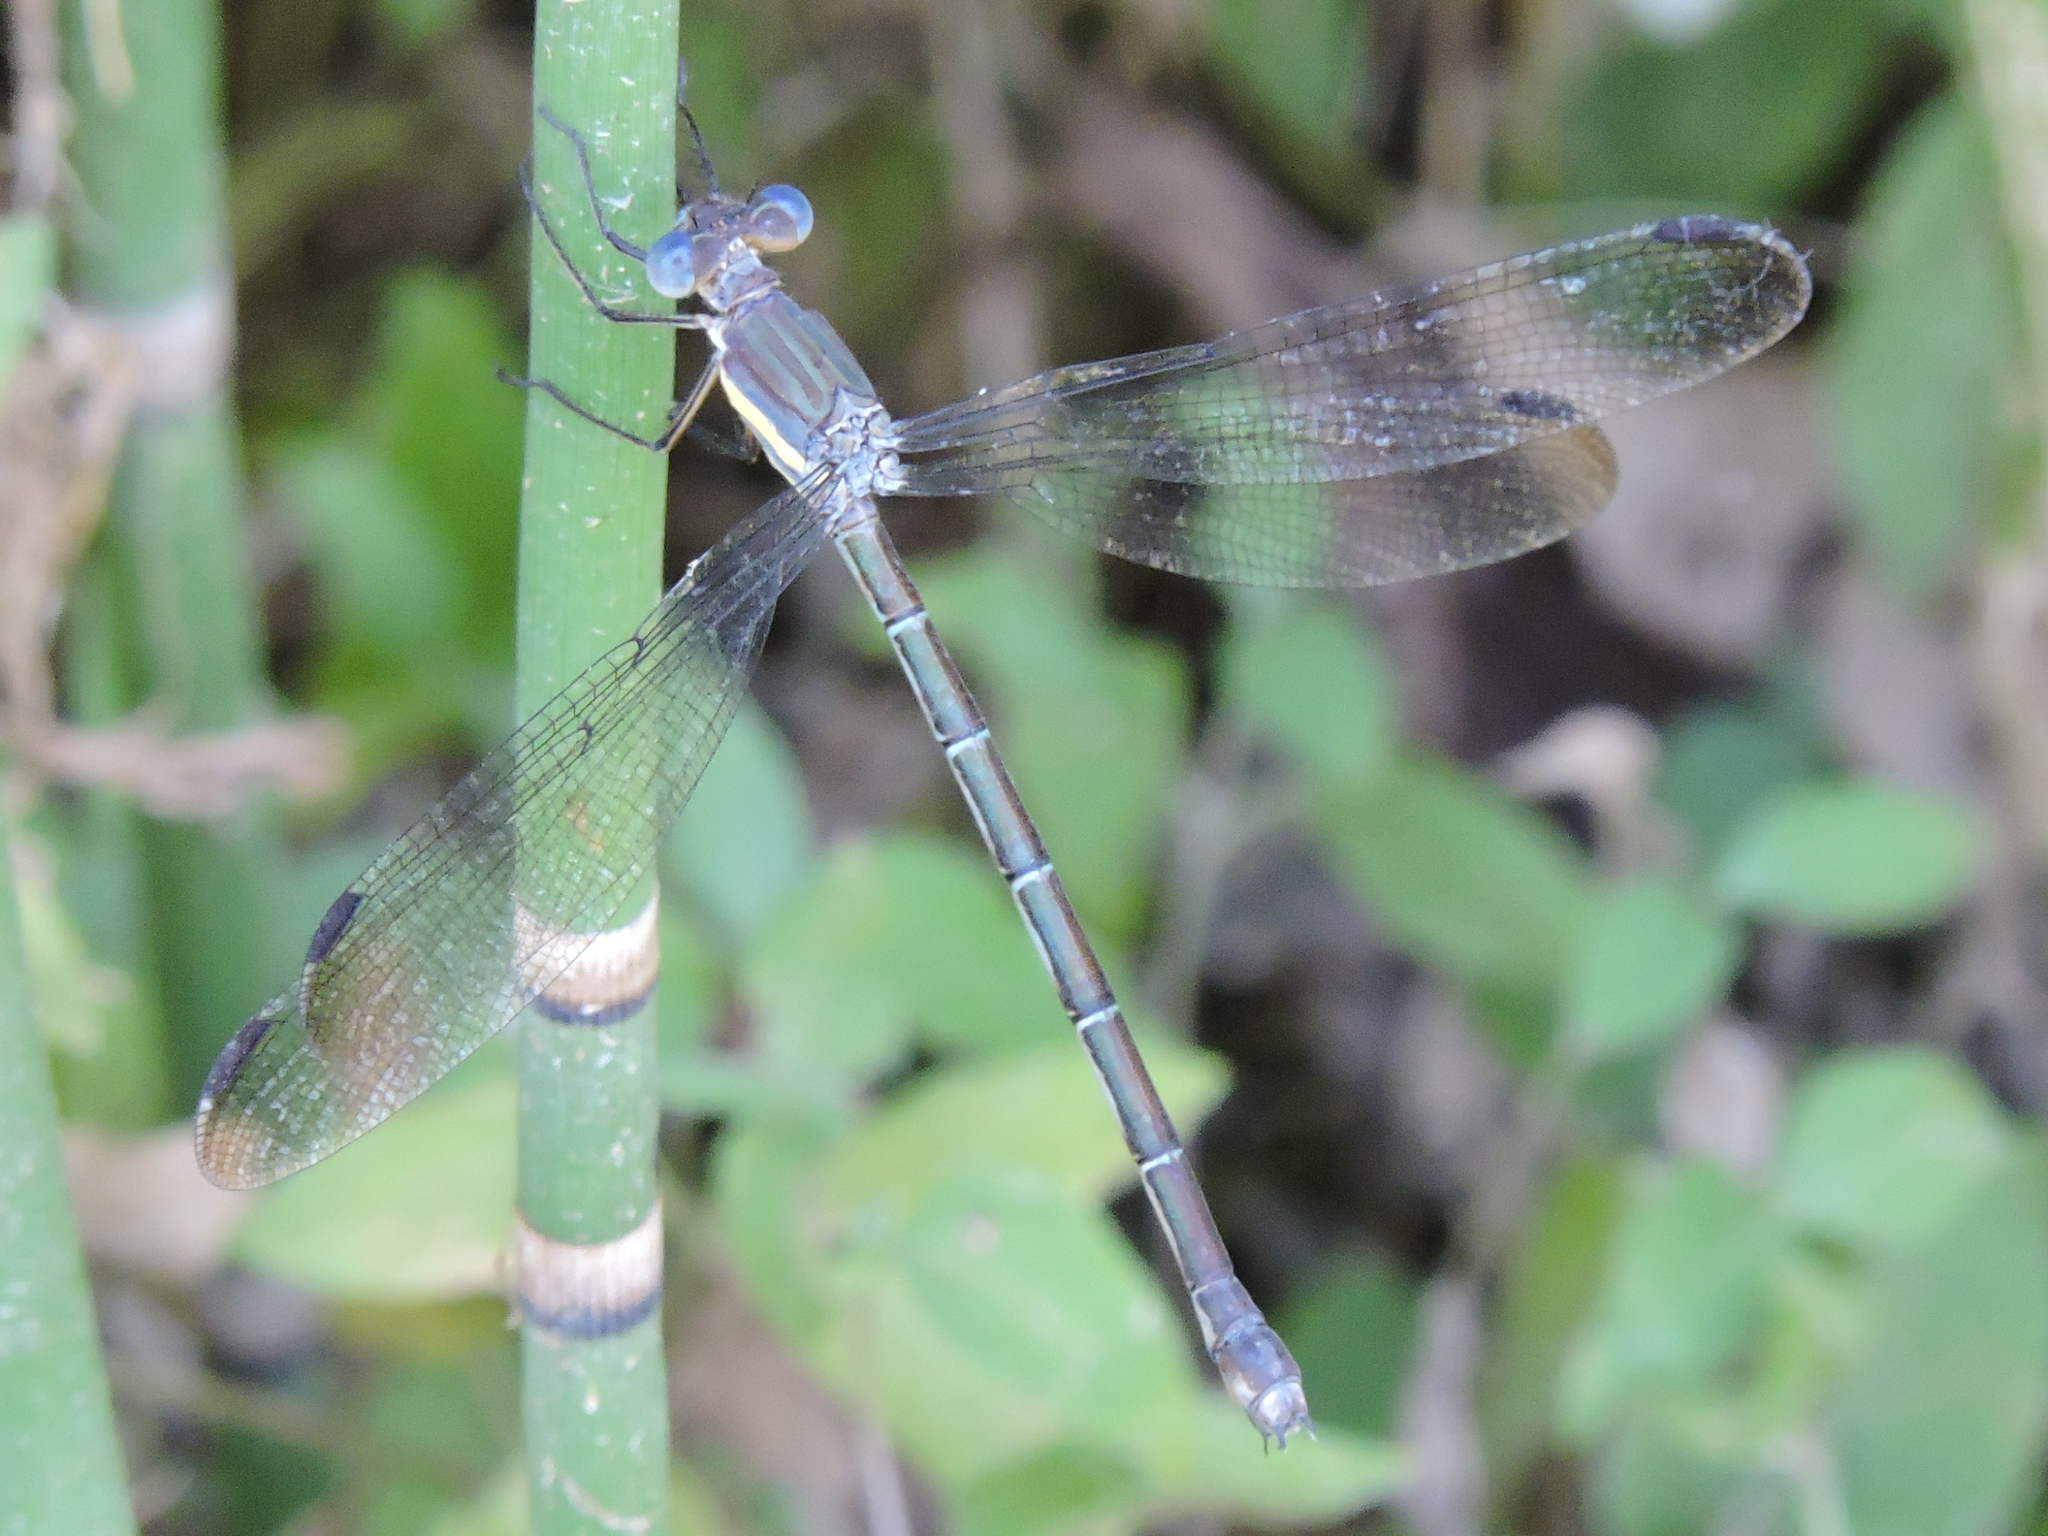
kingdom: Animalia
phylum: Arthropoda
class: Insecta
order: Odonata
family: Lestidae
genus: Archilestes
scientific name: Archilestes grandis
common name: Great spreadwing
